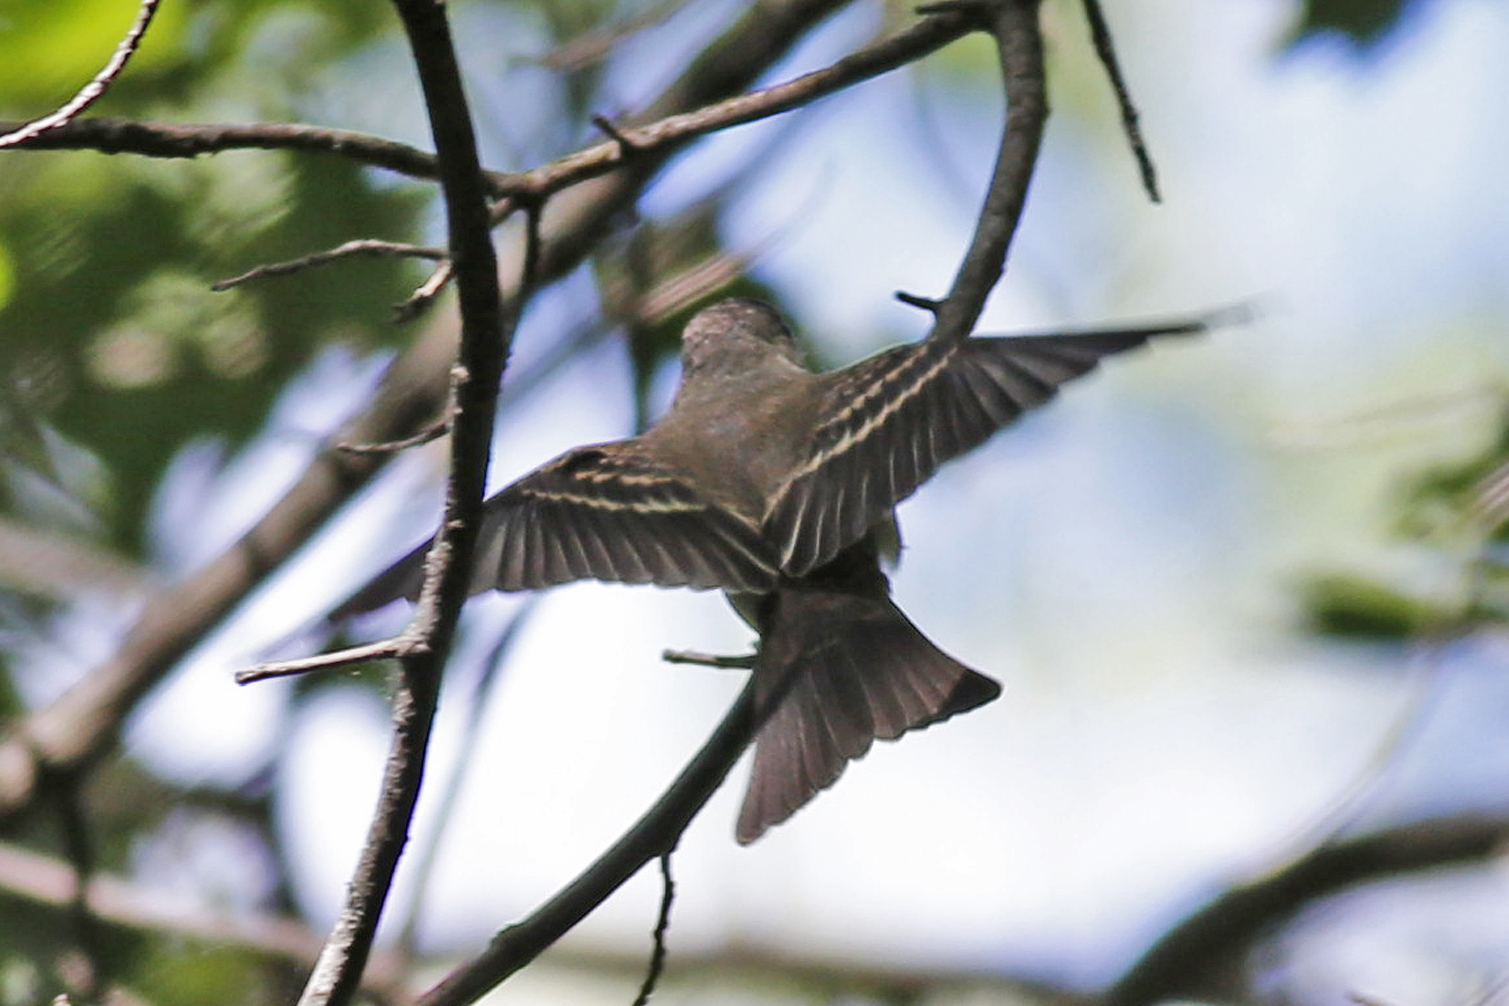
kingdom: Animalia
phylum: Chordata
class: Aves
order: Passeriformes
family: Tyrannidae
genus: Contopus
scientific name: Contopus virens
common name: Eastern wood-pewee
